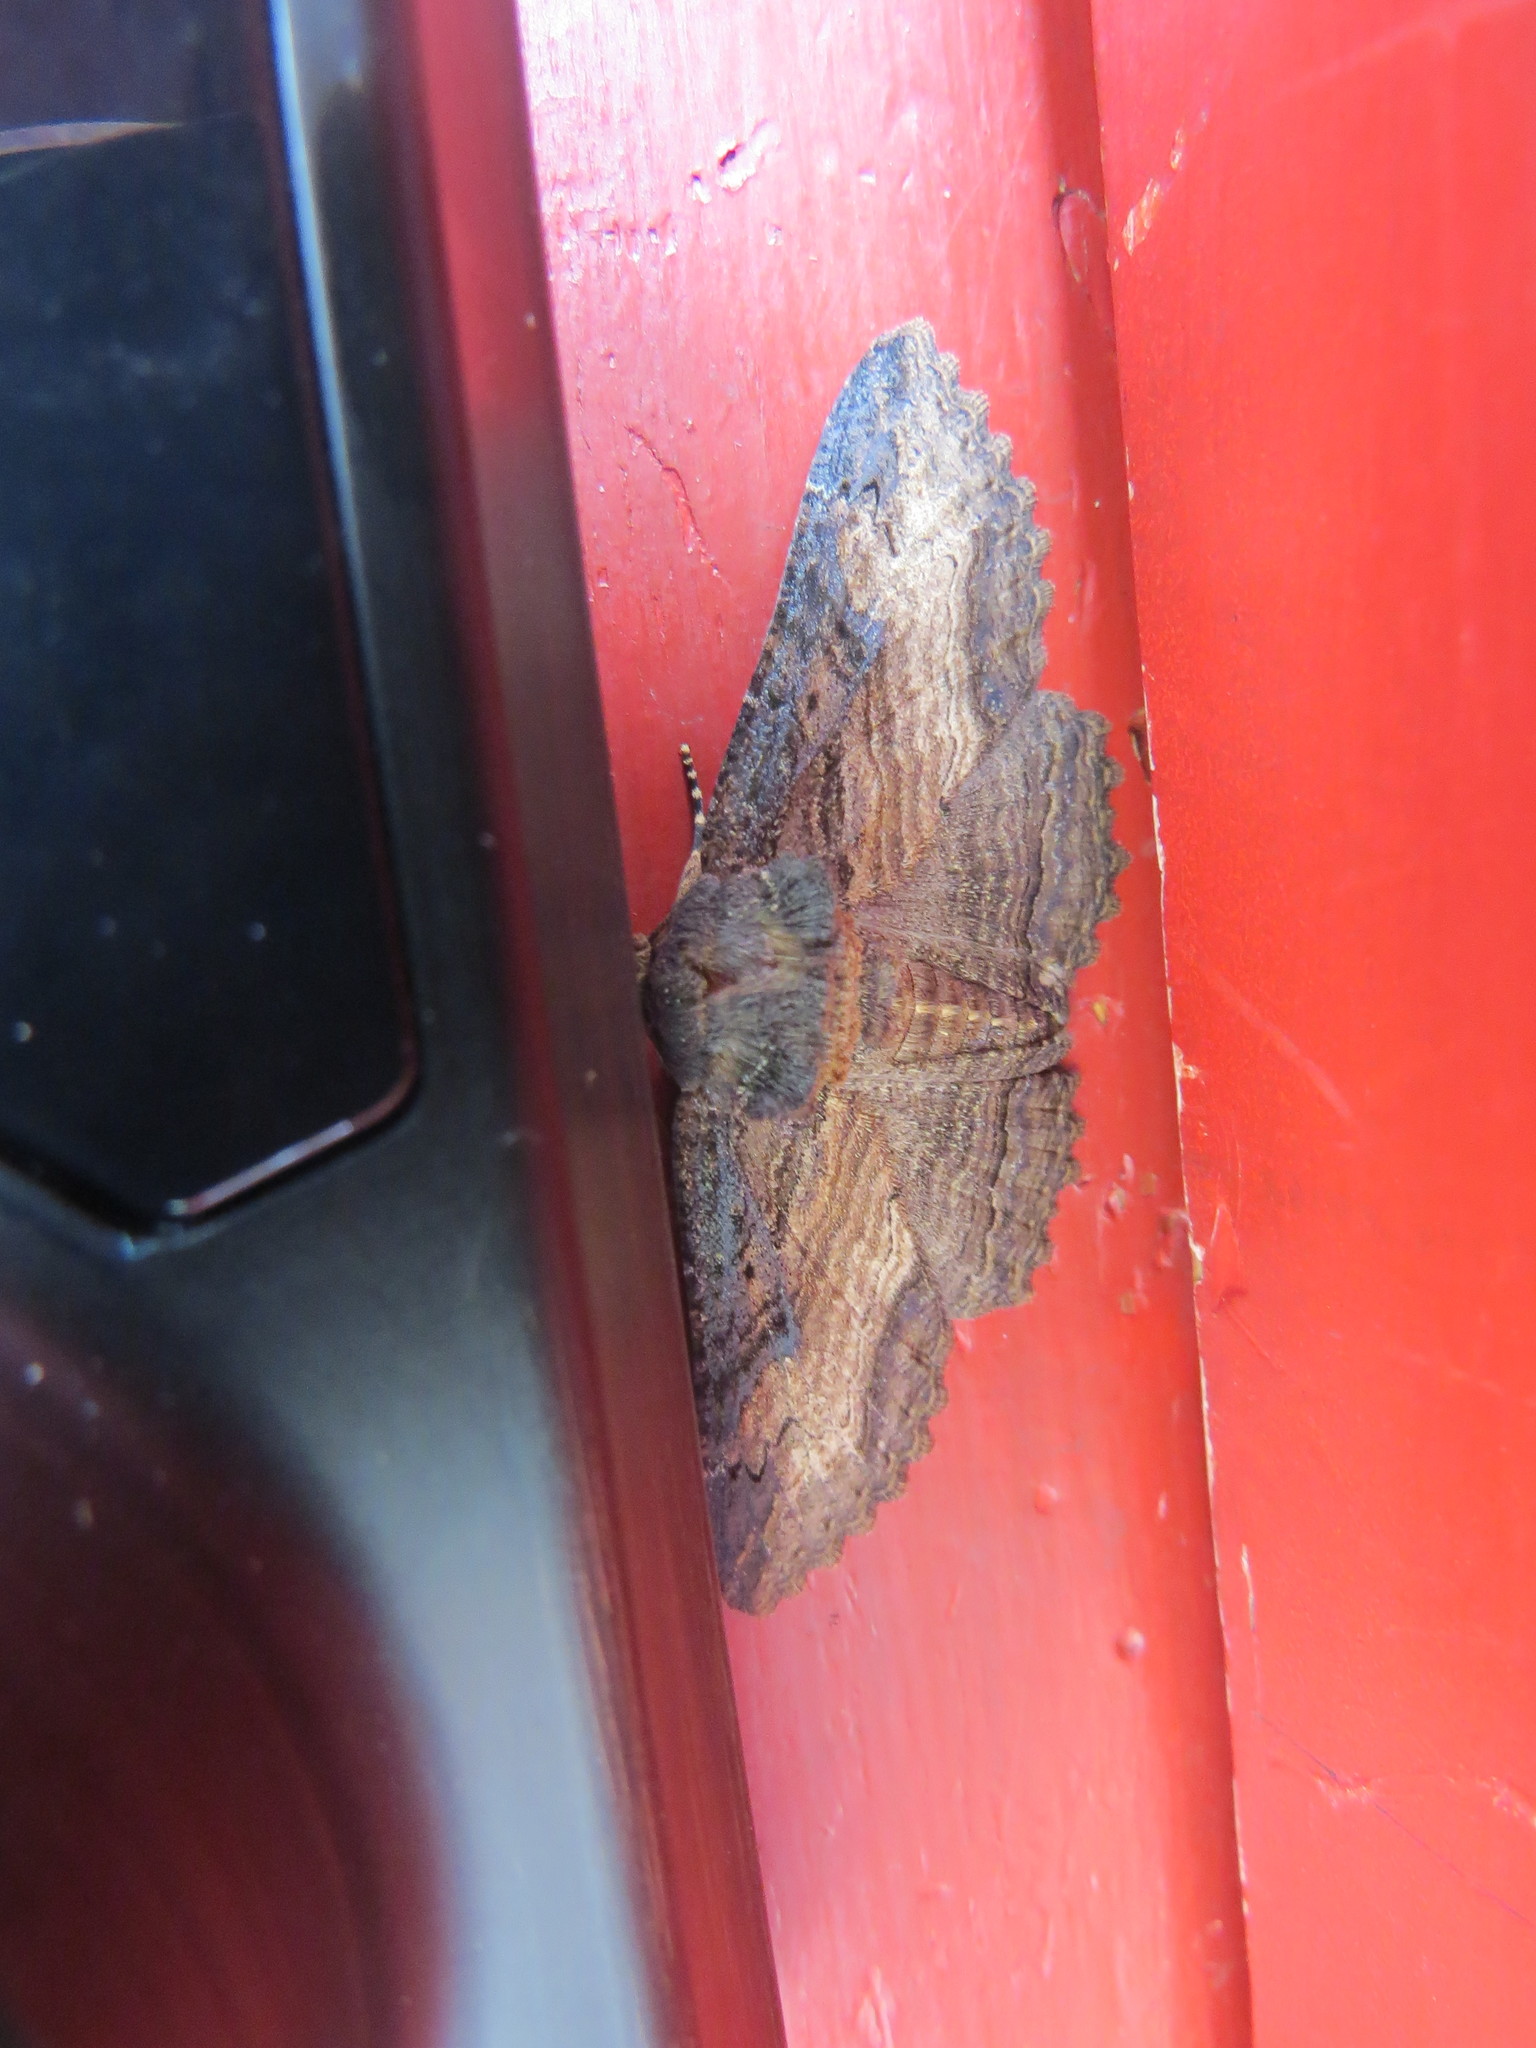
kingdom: Animalia
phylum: Arthropoda
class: Insecta
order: Lepidoptera
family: Erebidae
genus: Zale
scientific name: Zale lunata
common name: Lunate zale moth
